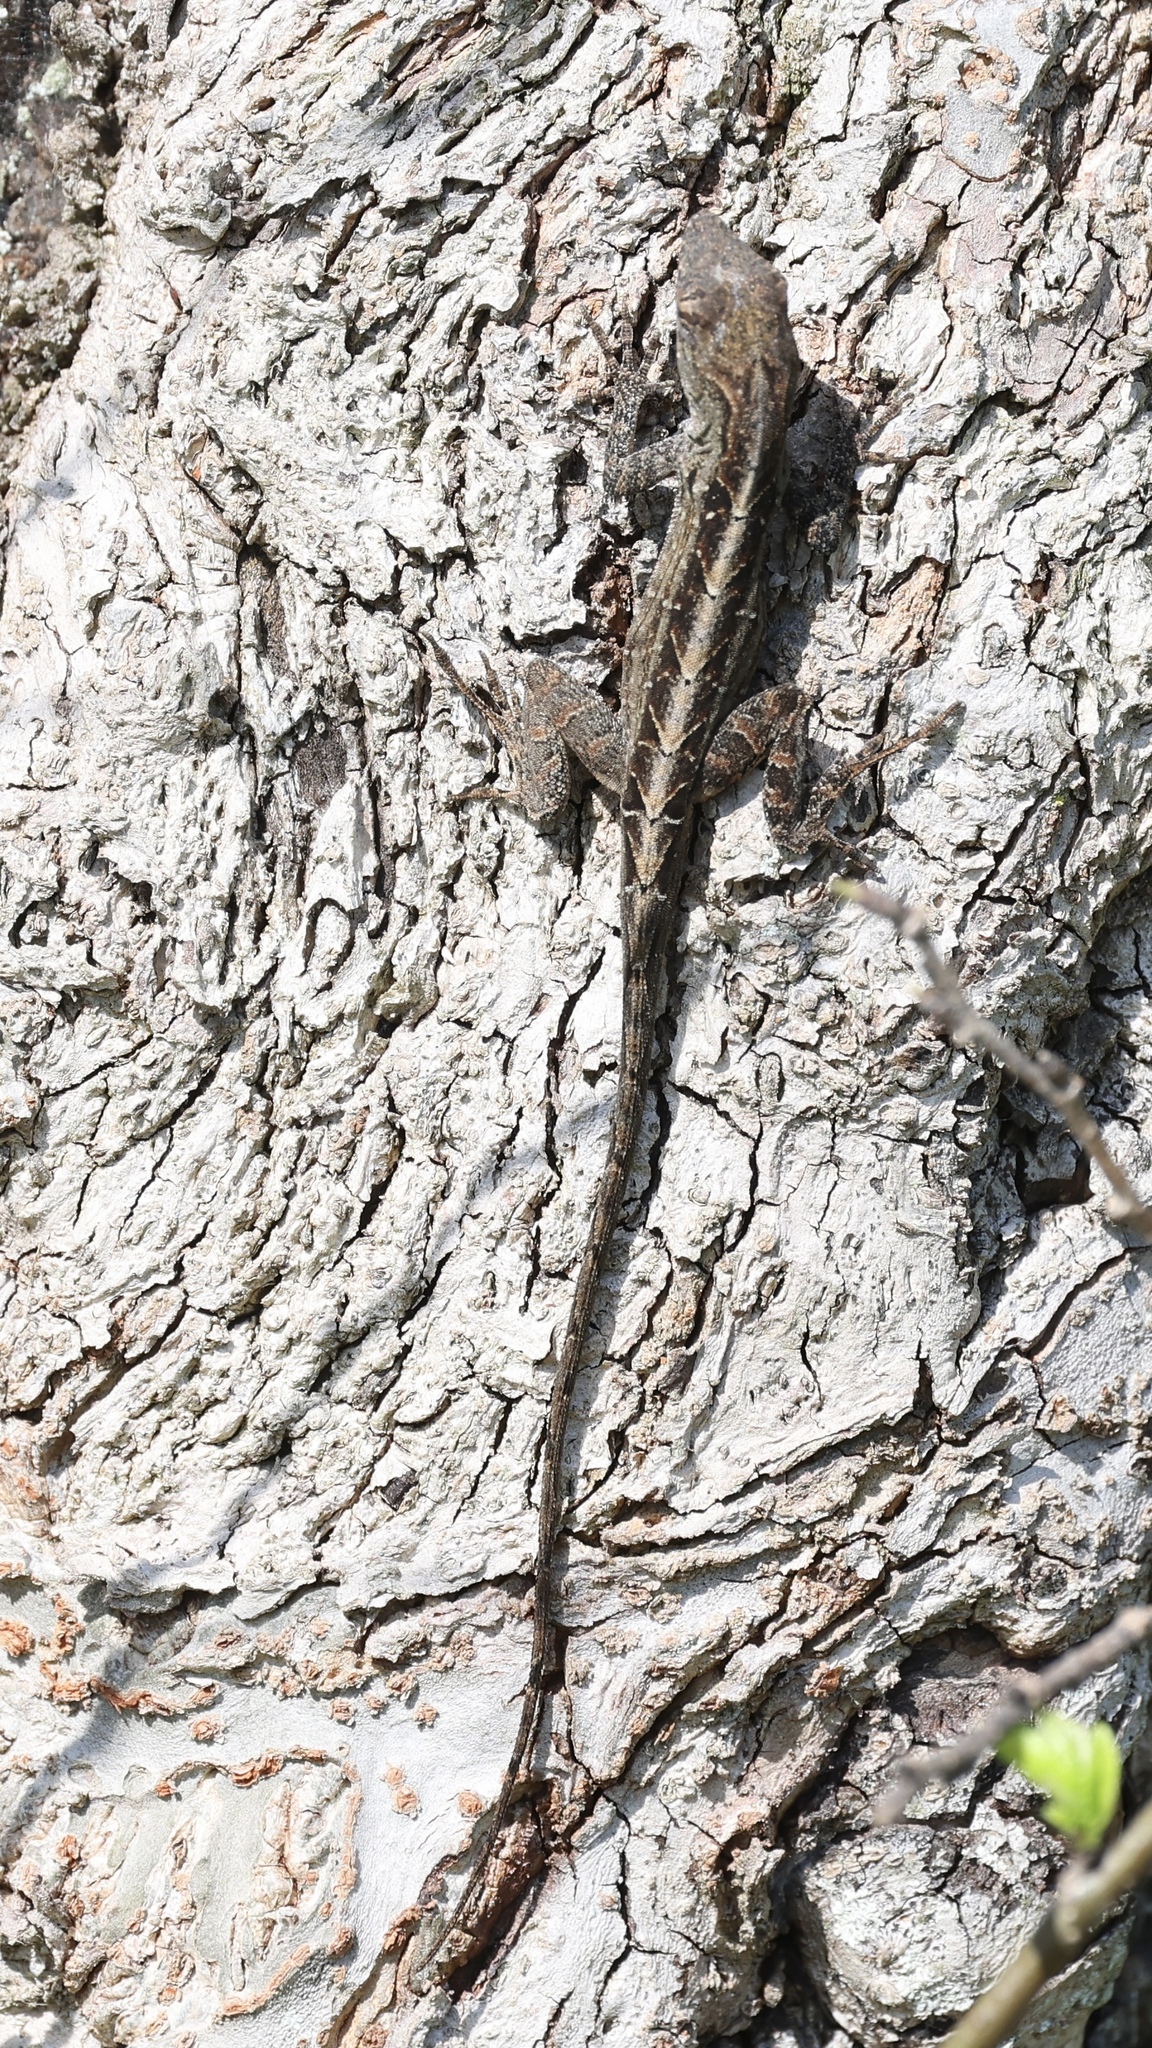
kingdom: Animalia
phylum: Chordata
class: Squamata
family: Dactyloidae
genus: Anolis
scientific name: Anolis sagrei
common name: Brown anole
